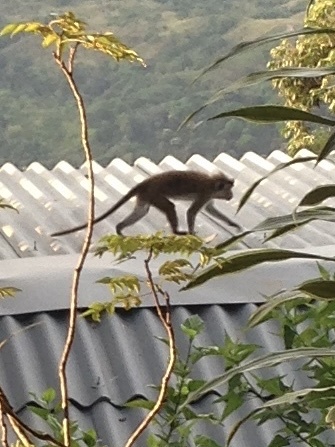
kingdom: Animalia
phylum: Chordata
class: Mammalia
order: Primates
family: Cercopithecidae
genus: Macaca
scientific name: Macaca sinica
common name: Toque macaque
